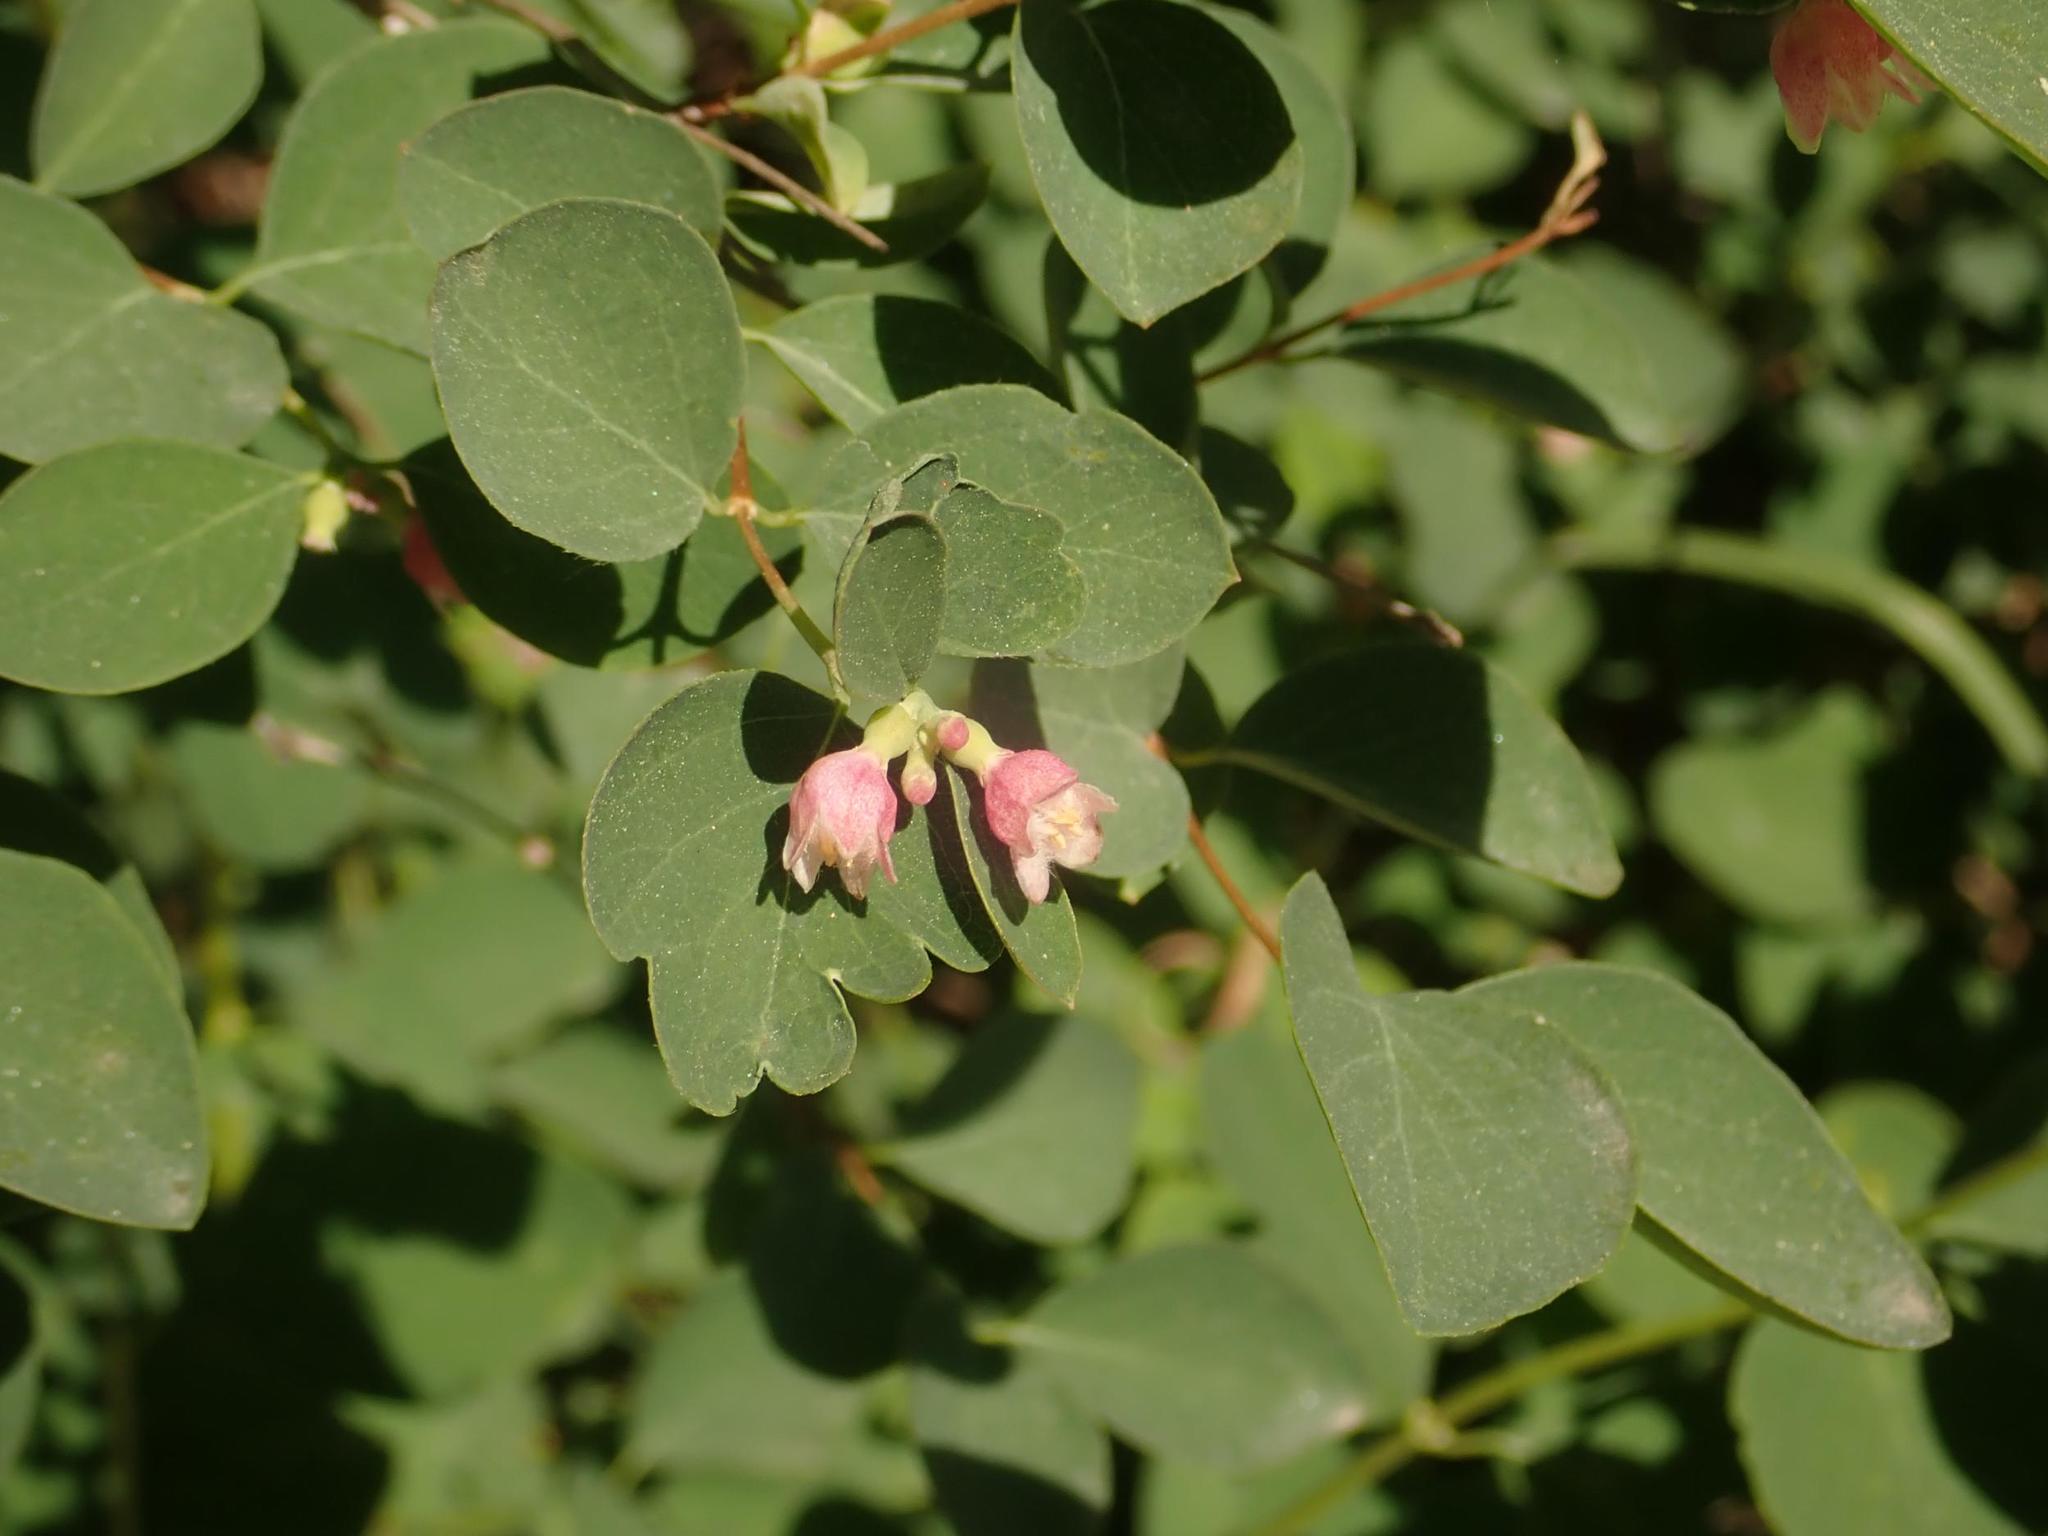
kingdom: Plantae
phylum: Tracheophyta
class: Magnoliopsida
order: Dipsacales
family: Caprifoliaceae
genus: Symphoricarpos
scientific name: Symphoricarpos albus
